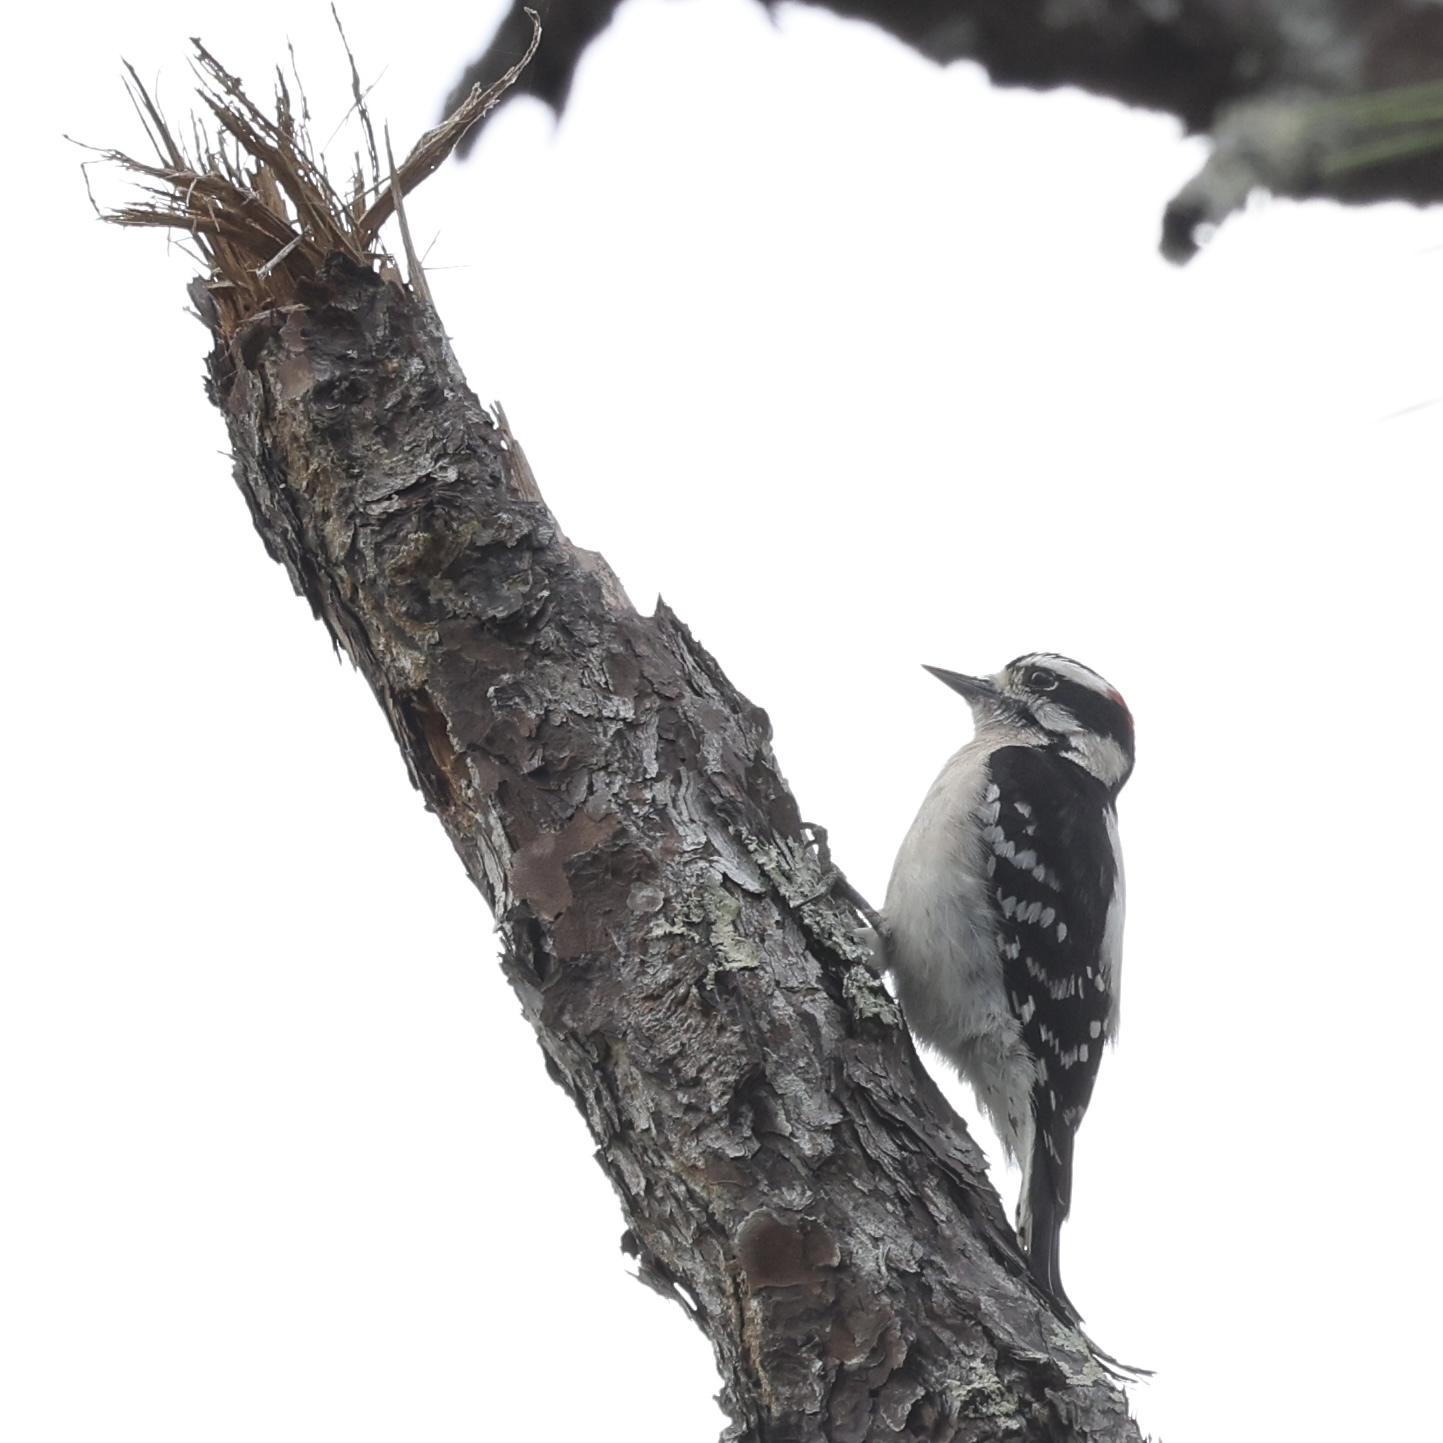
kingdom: Animalia
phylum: Chordata
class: Aves
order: Piciformes
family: Picidae
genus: Dryobates
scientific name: Dryobates pubescens
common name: Downy woodpecker
